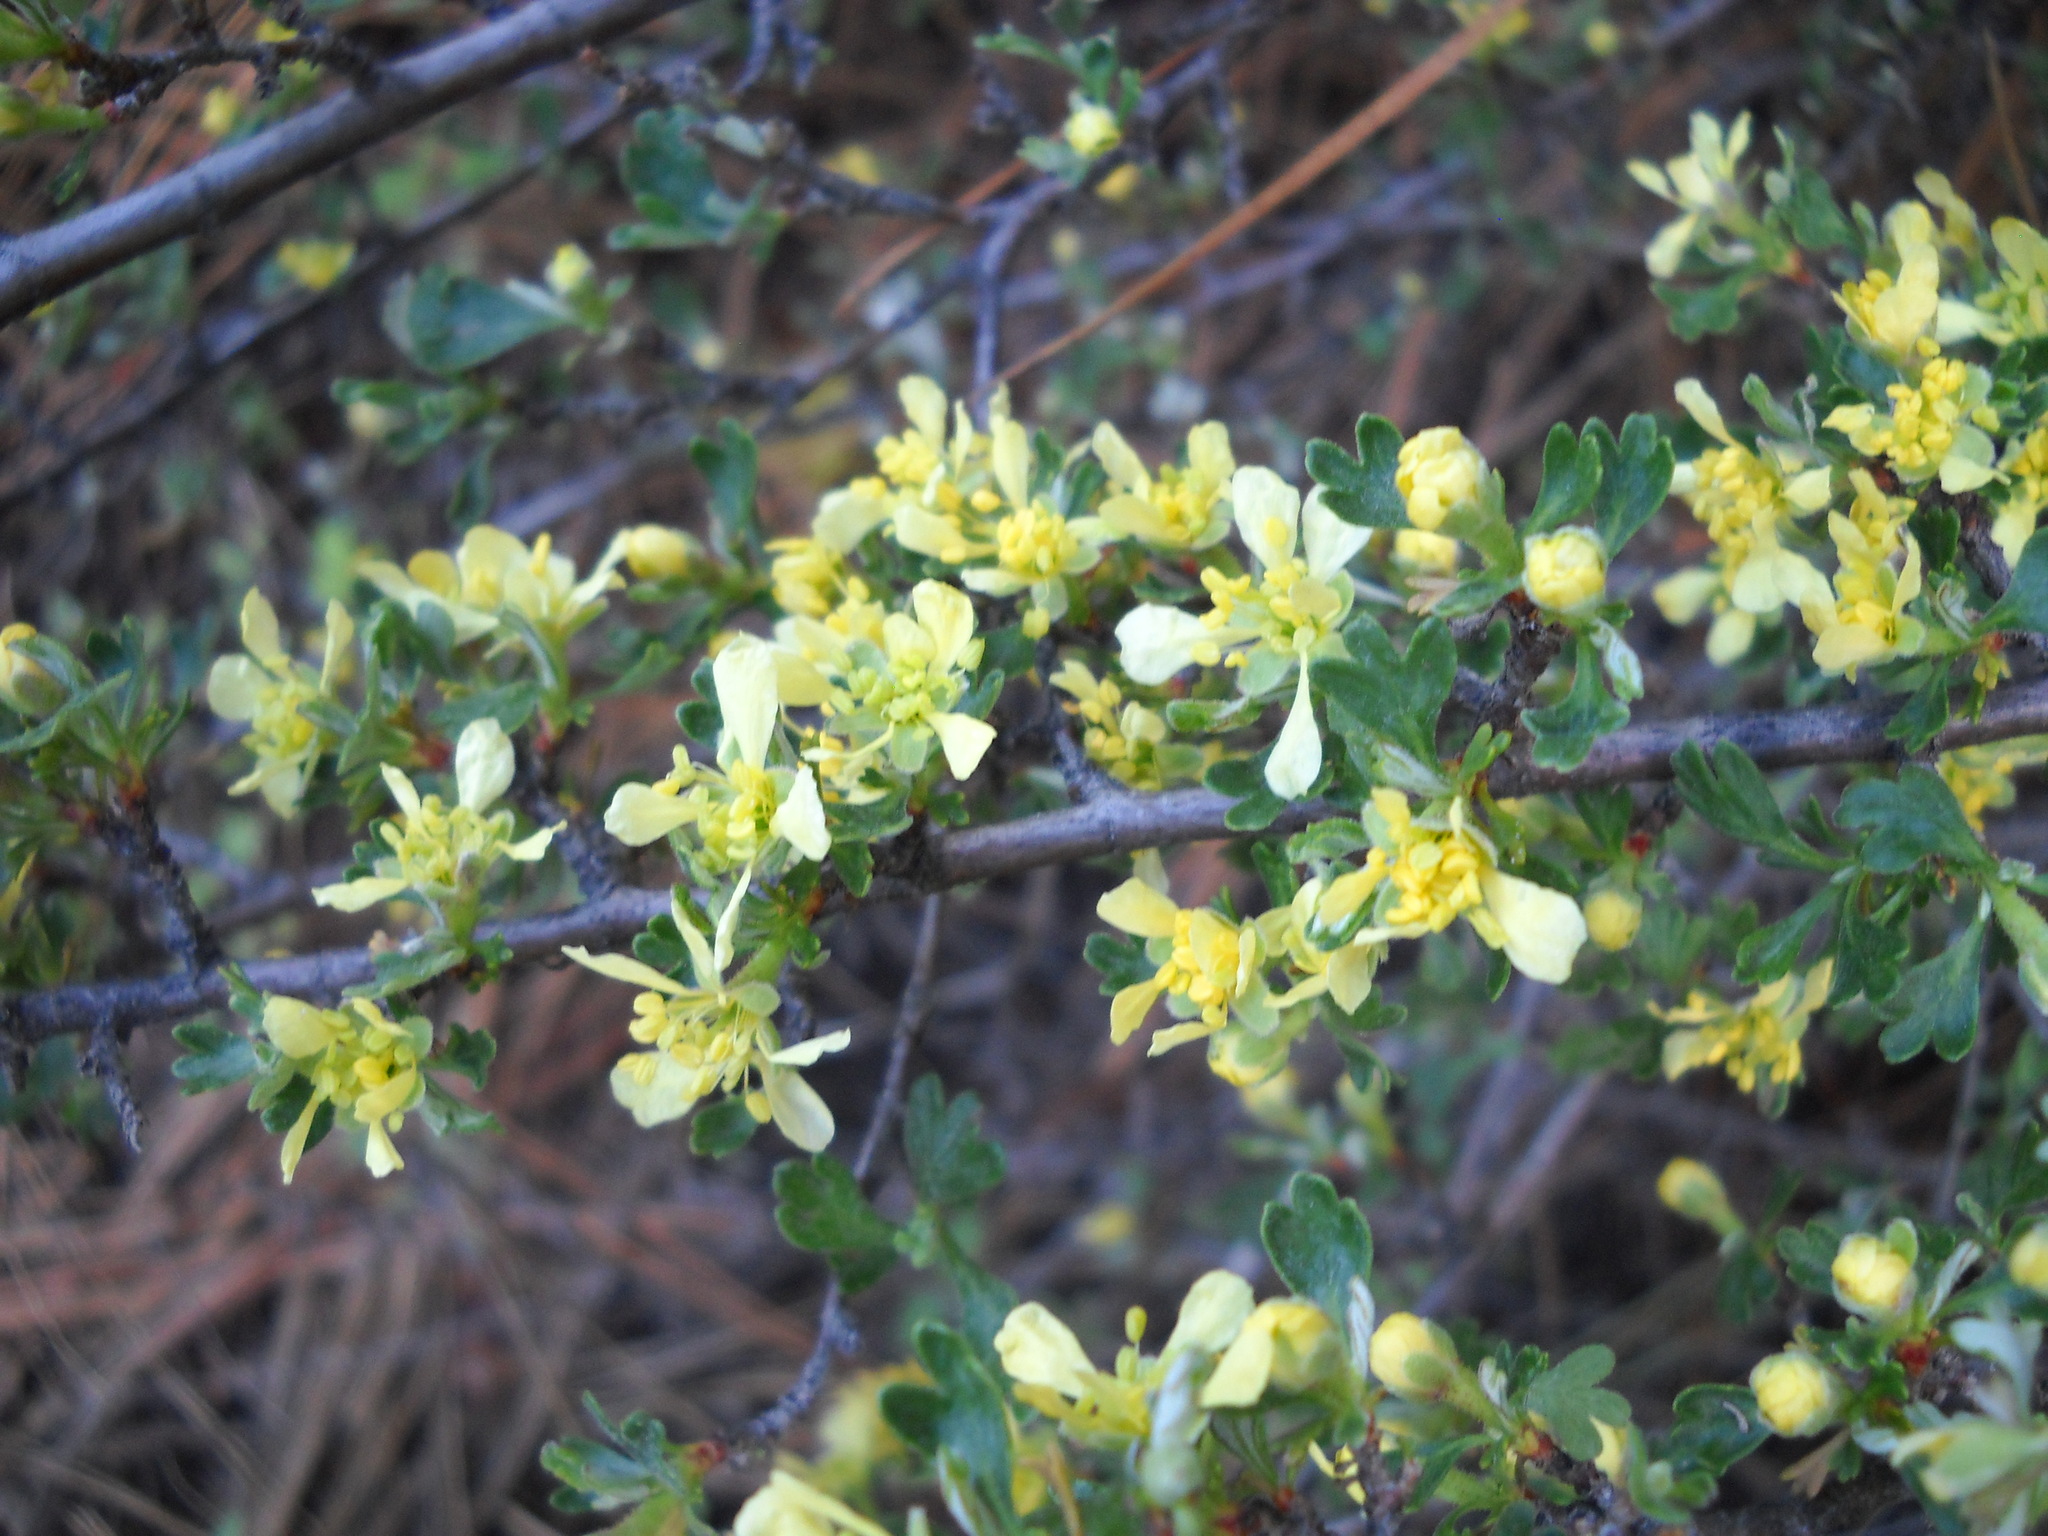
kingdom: Plantae
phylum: Tracheophyta
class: Magnoliopsida
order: Rosales
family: Rosaceae
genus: Purshia
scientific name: Purshia tridentata
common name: Antelope bitterbrush
